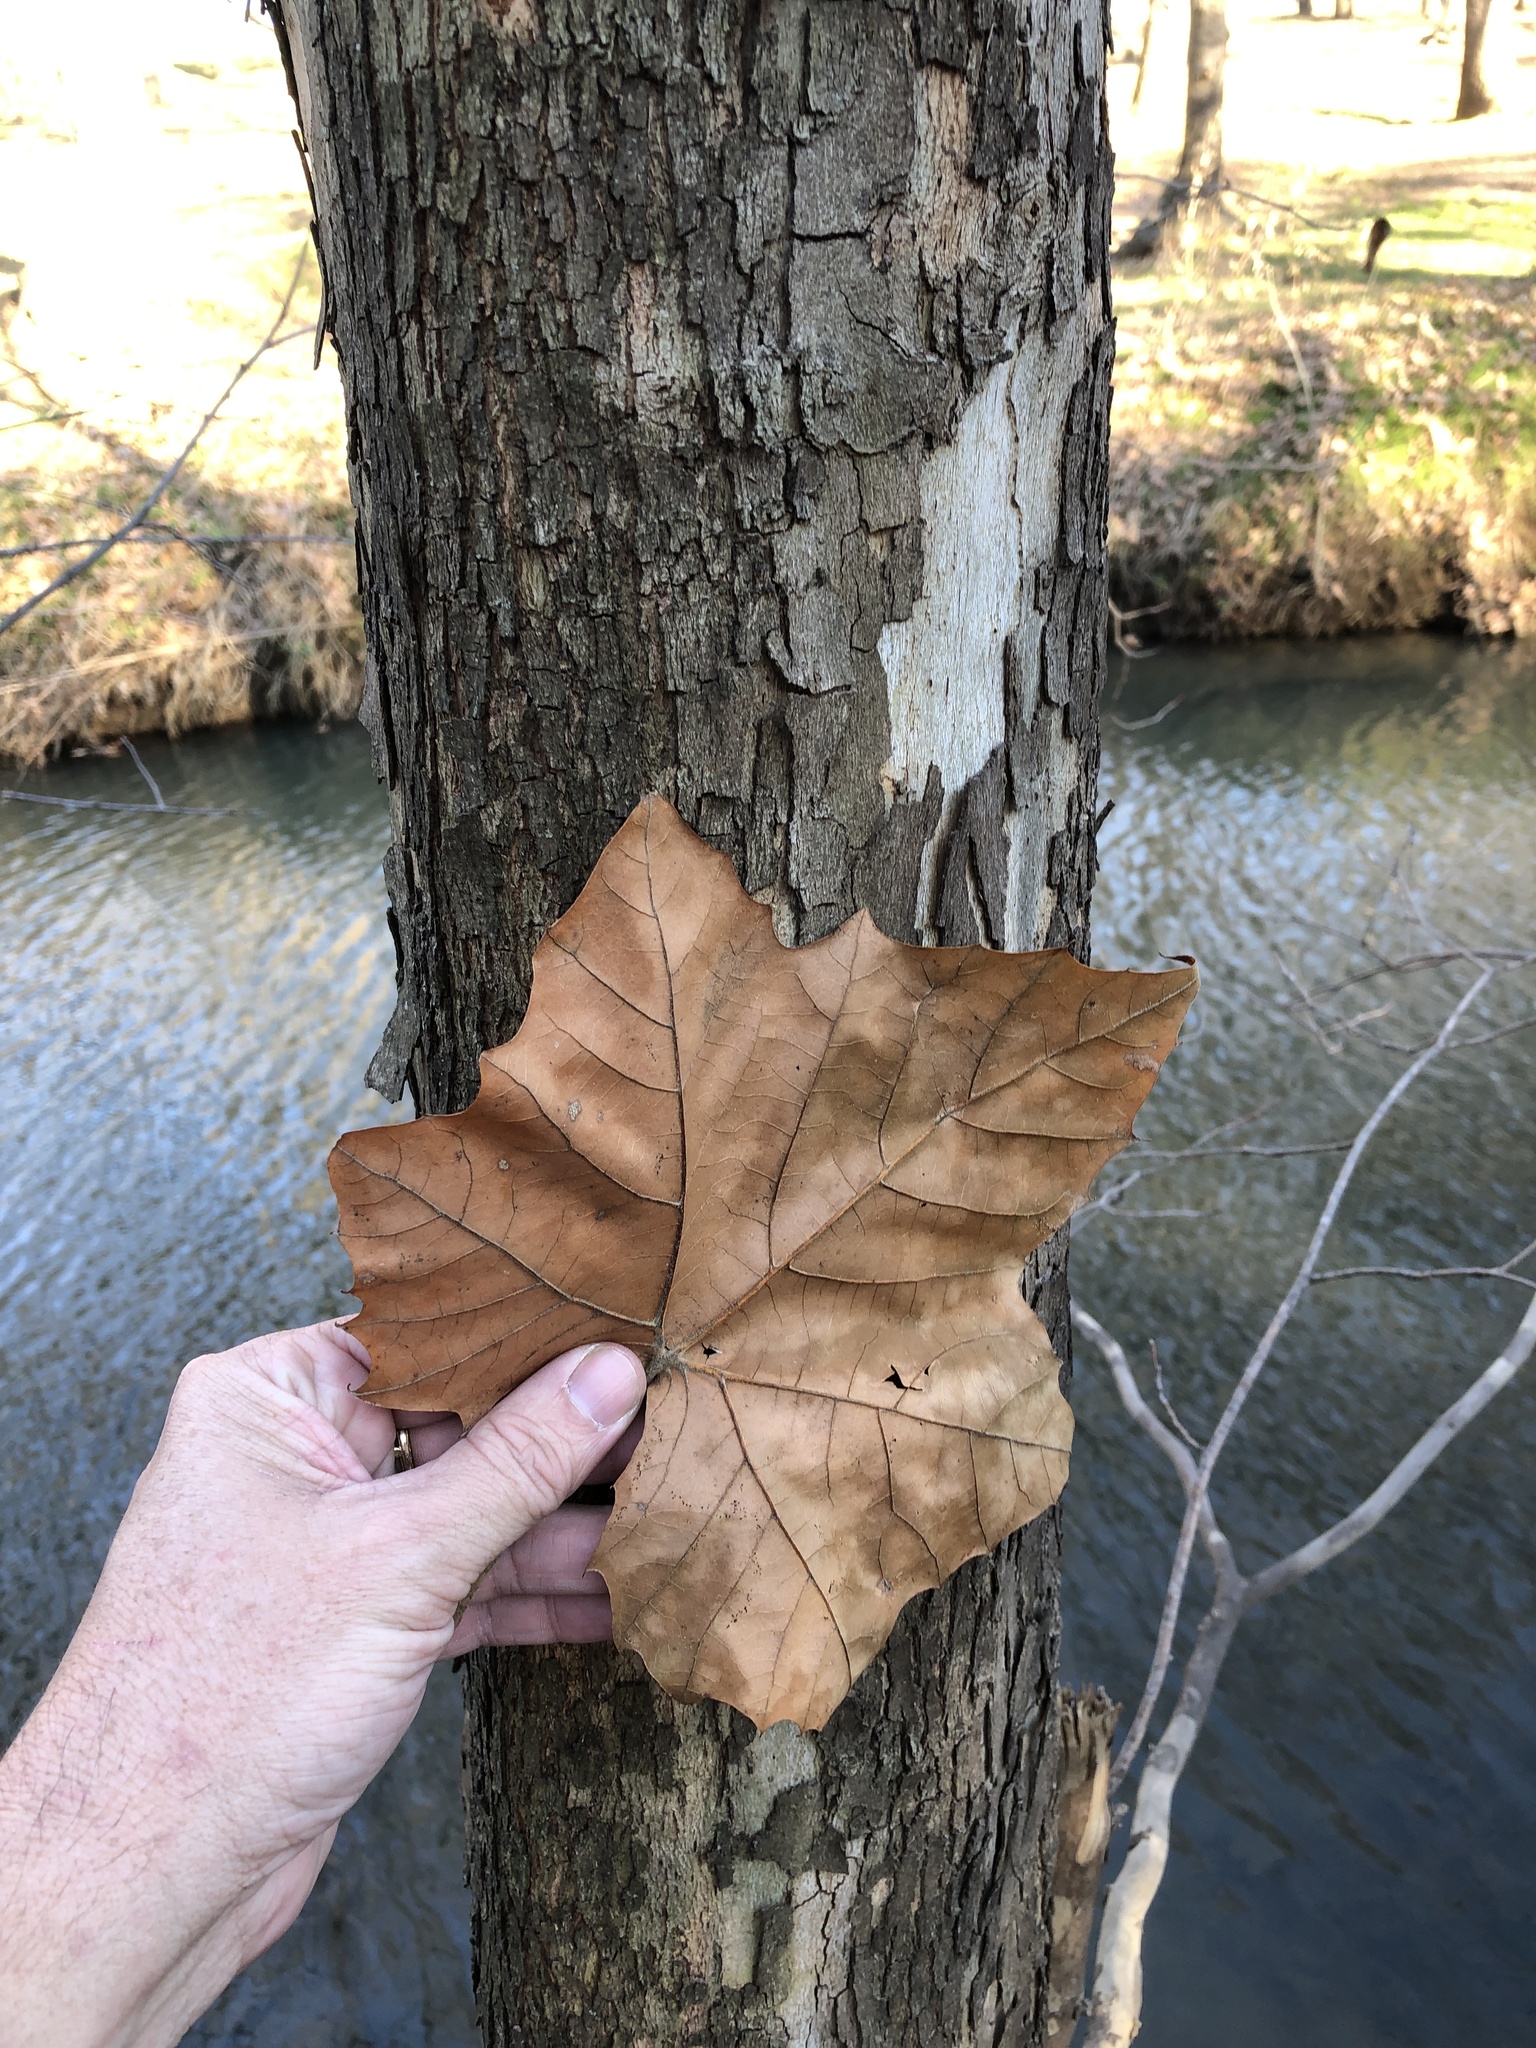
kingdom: Plantae
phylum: Tracheophyta
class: Magnoliopsida
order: Proteales
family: Platanaceae
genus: Platanus
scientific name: Platanus occidentalis
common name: American sycamore
